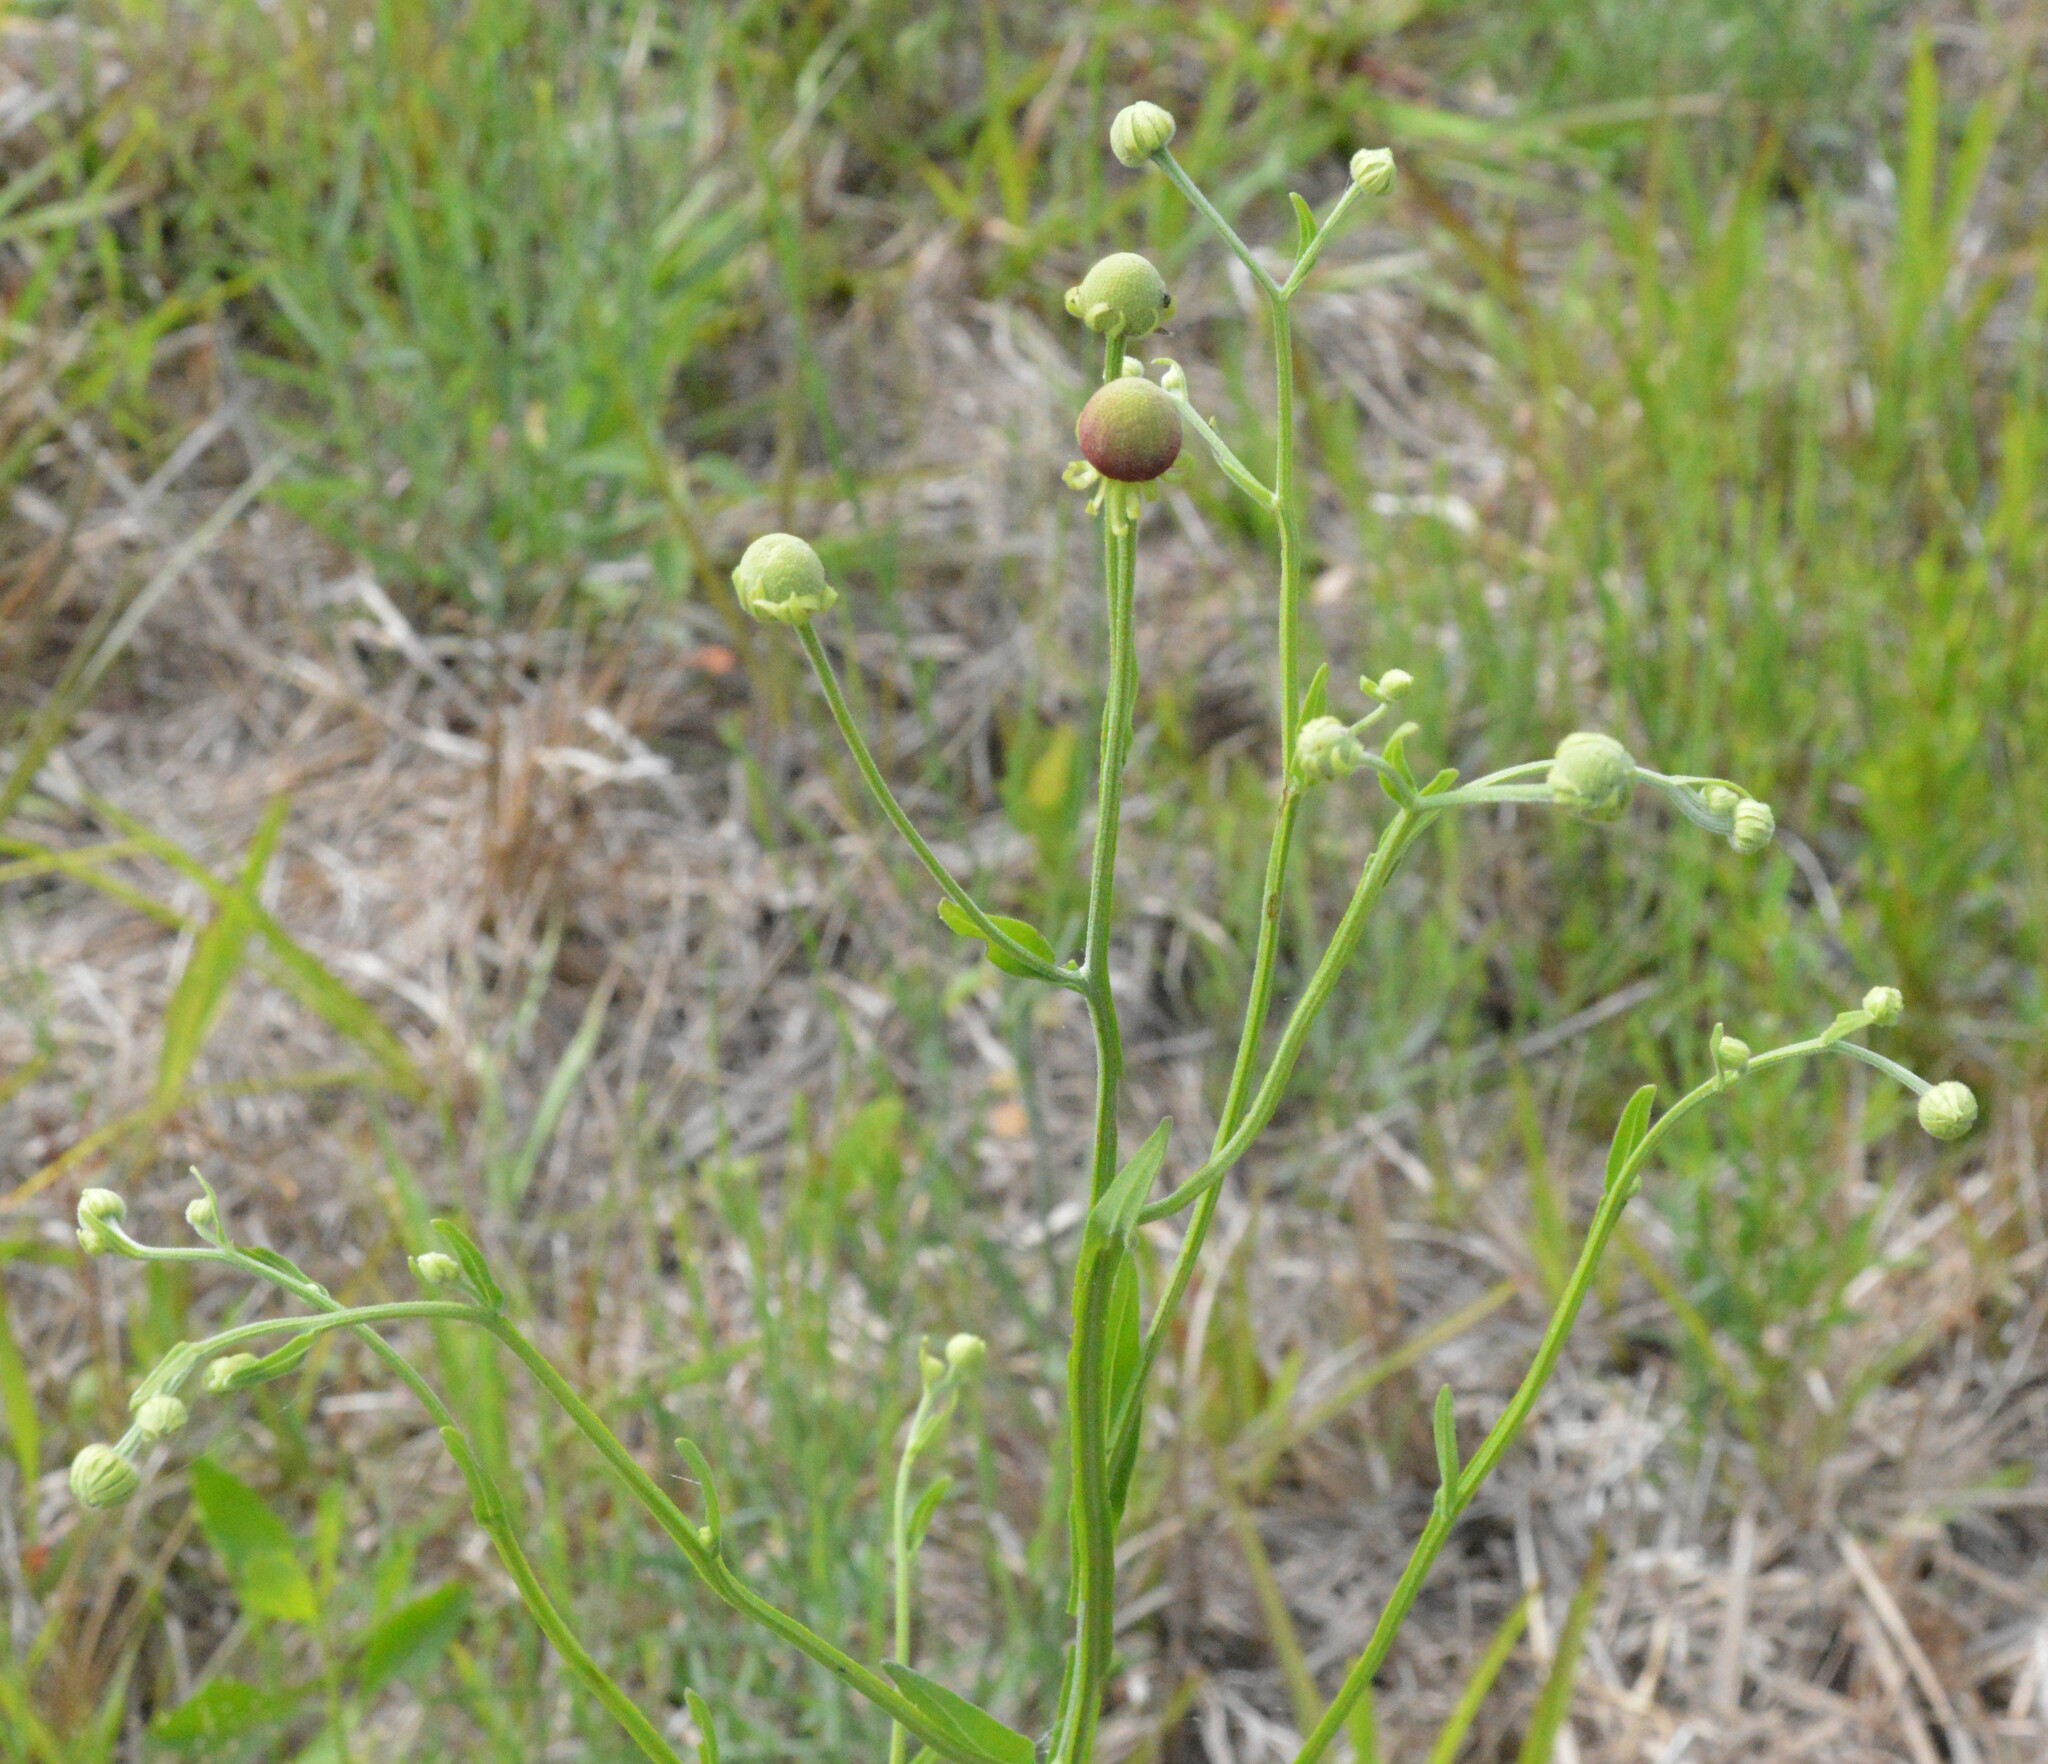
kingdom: Plantae
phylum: Tracheophyta
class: Magnoliopsida
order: Asterales
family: Asteraceae
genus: Helenium
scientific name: Helenium flexuosum
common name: Naked-flowered sneezeweed
